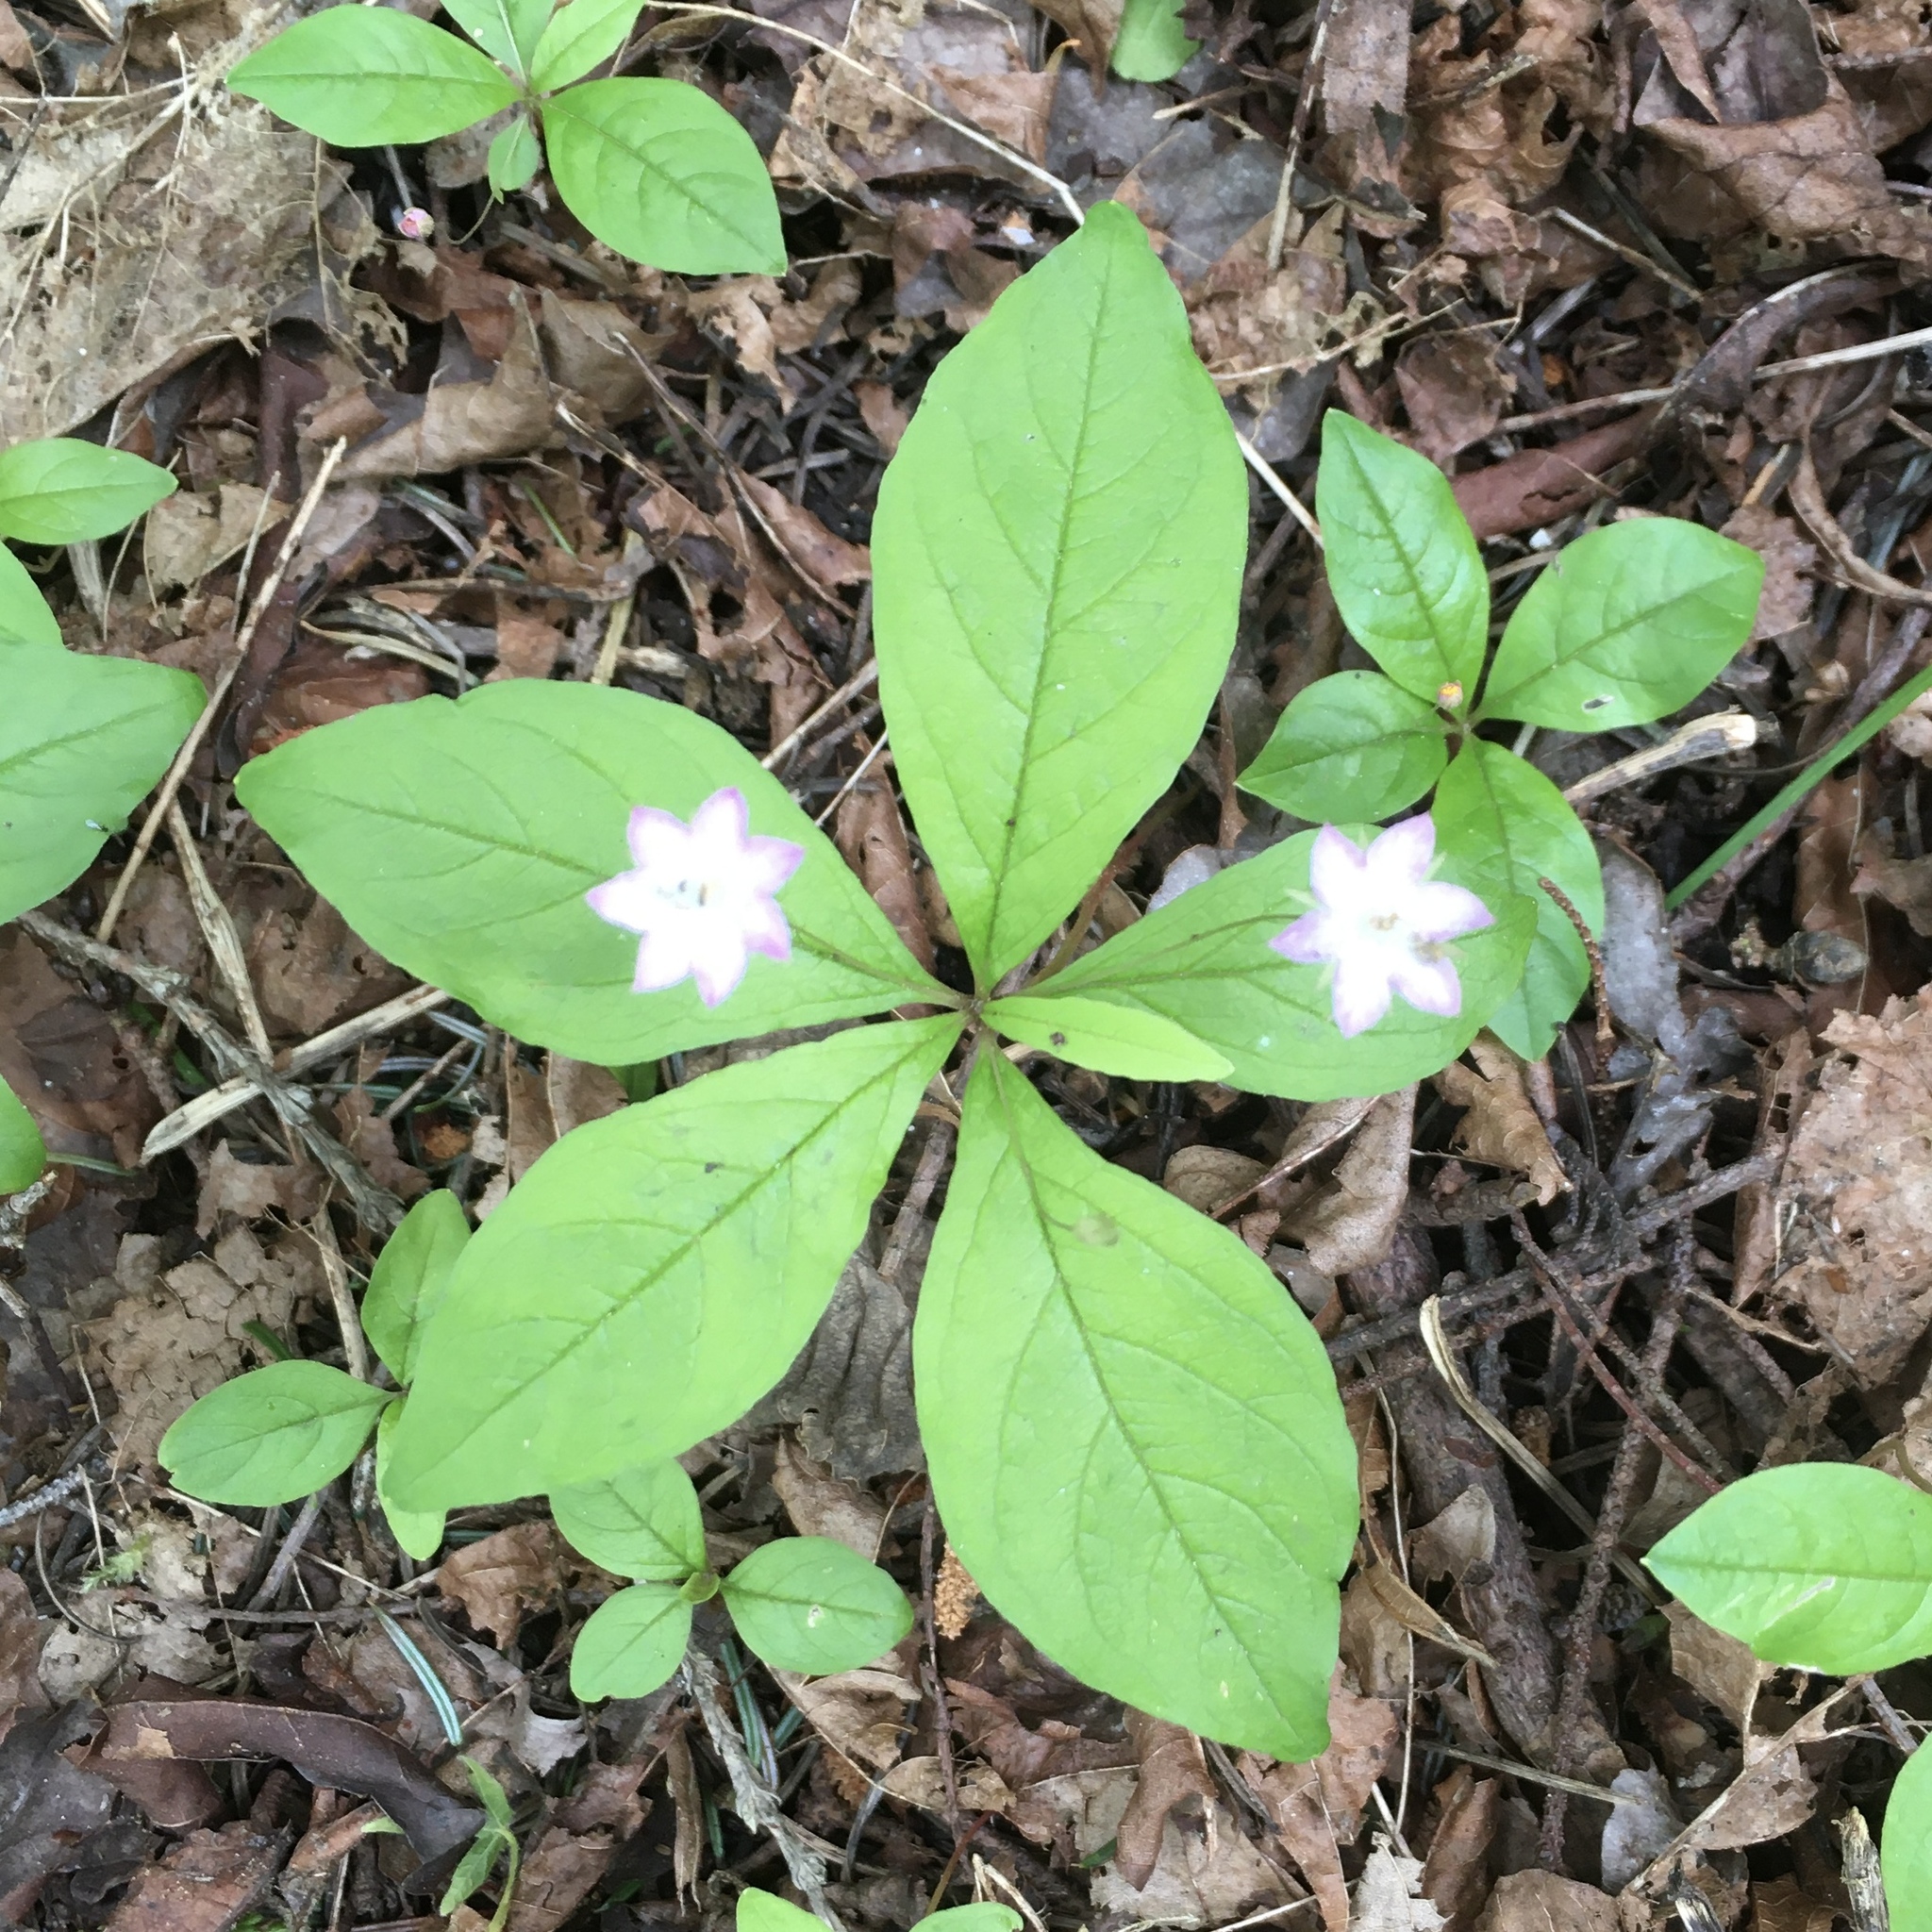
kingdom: Plantae
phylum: Tracheophyta
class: Magnoliopsida
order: Ericales
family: Primulaceae
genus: Lysimachia
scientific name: Lysimachia latifolia
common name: Pacific starflower
